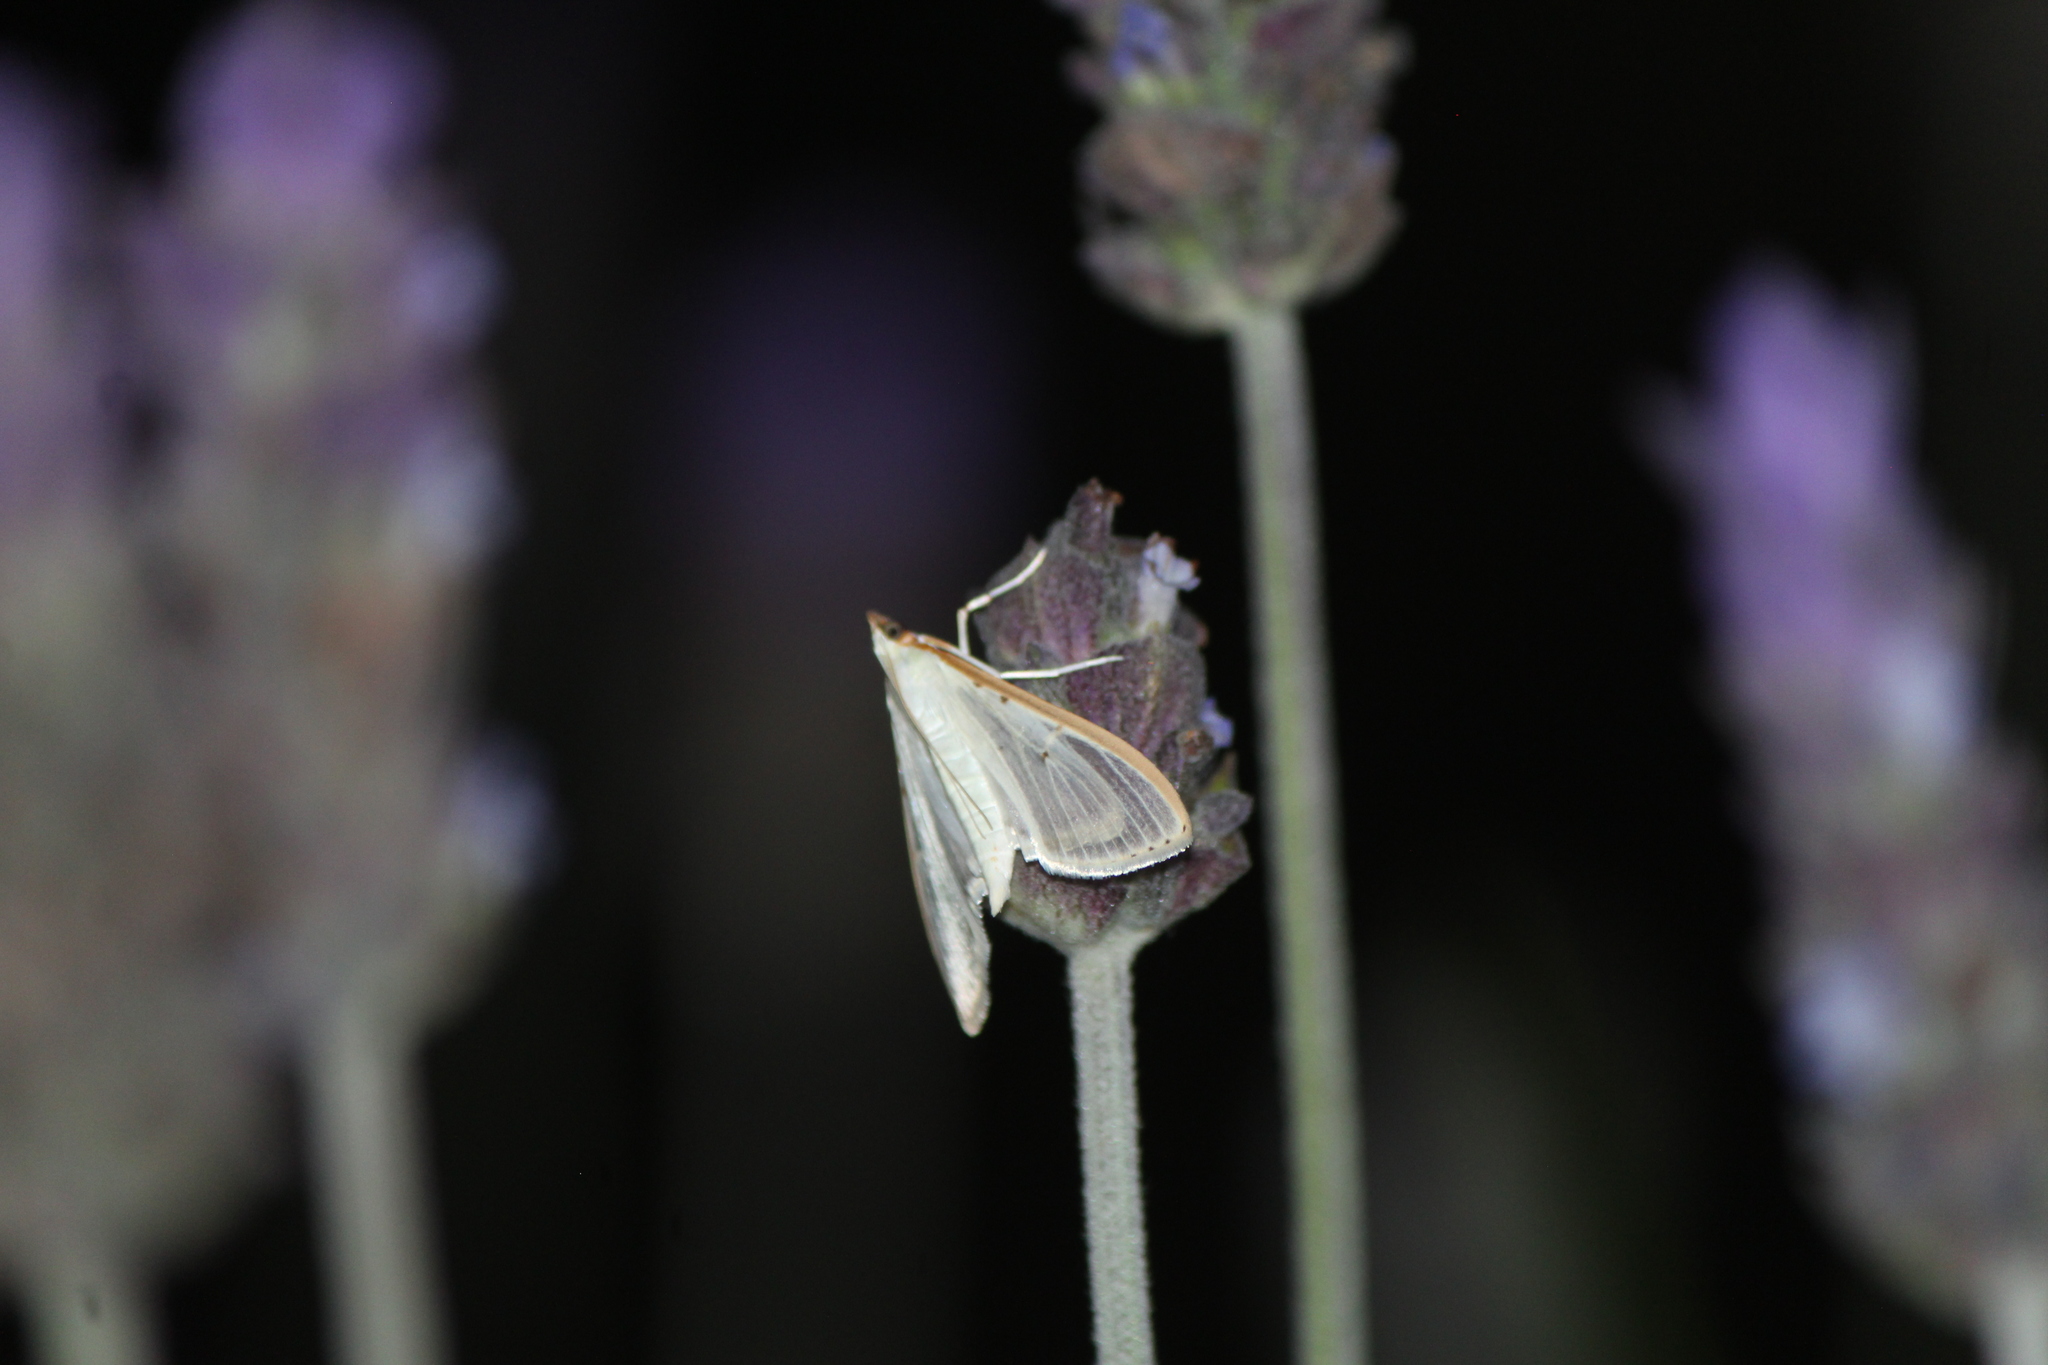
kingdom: Animalia
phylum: Arthropoda
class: Insecta
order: Lepidoptera
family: Crambidae
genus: Palpita
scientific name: Palpita quadristigmalis
